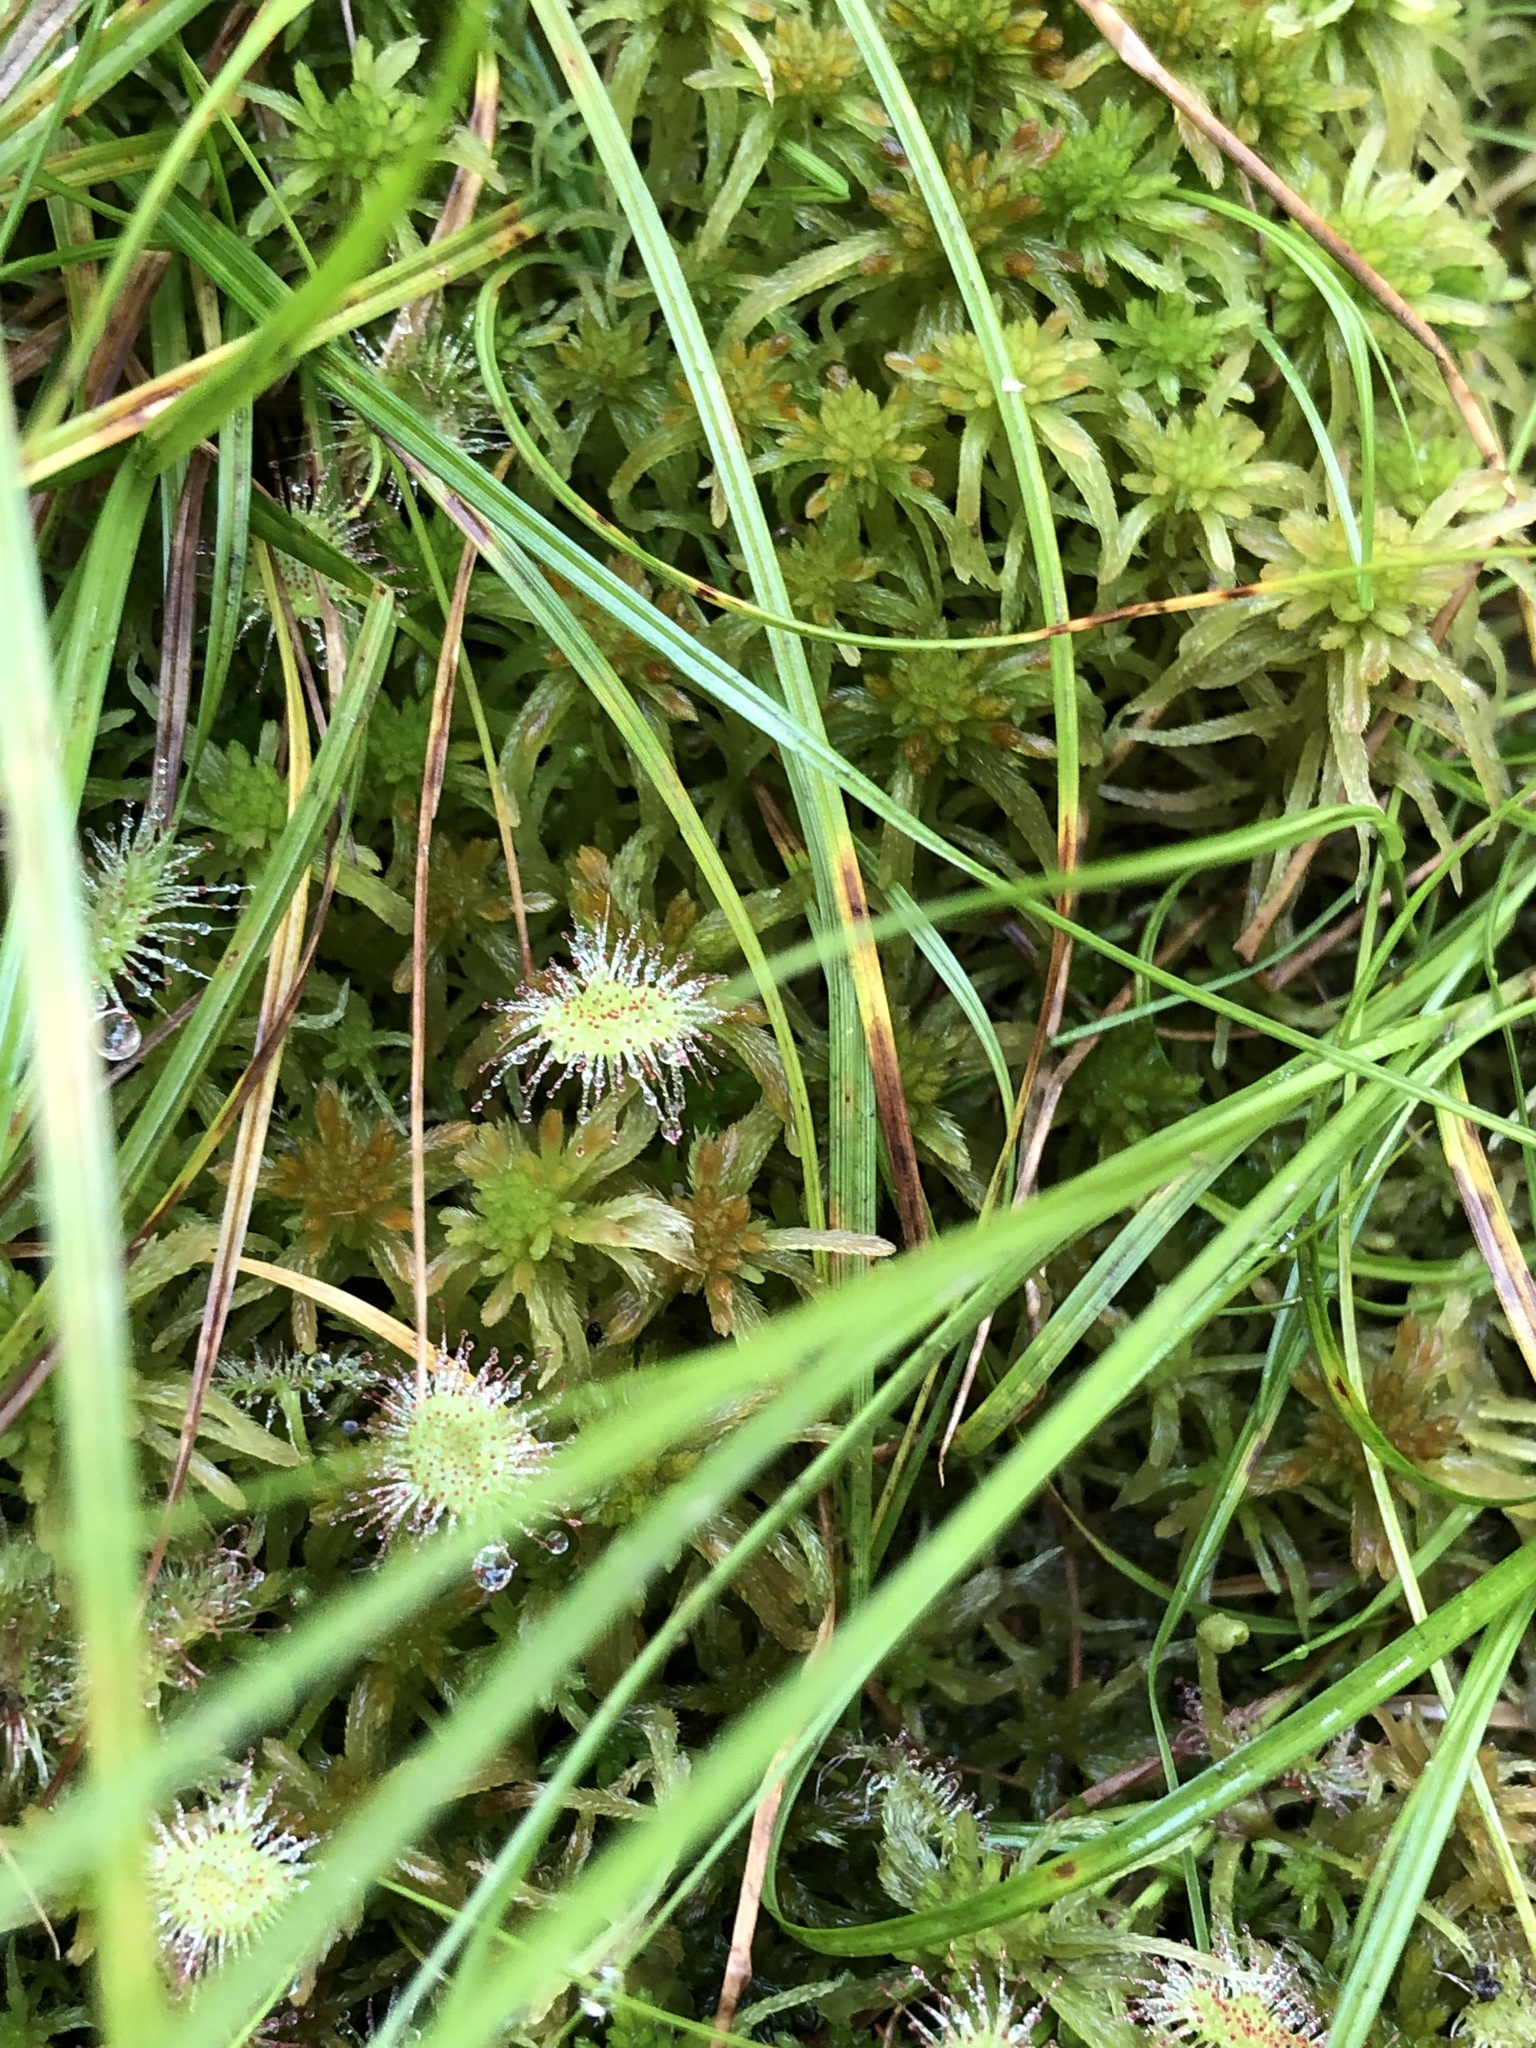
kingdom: Plantae
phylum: Tracheophyta
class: Magnoliopsida
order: Caryophyllales
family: Droseraceae
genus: Drosera
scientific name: Drosera rotundifolia
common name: Round-leaved sundew
